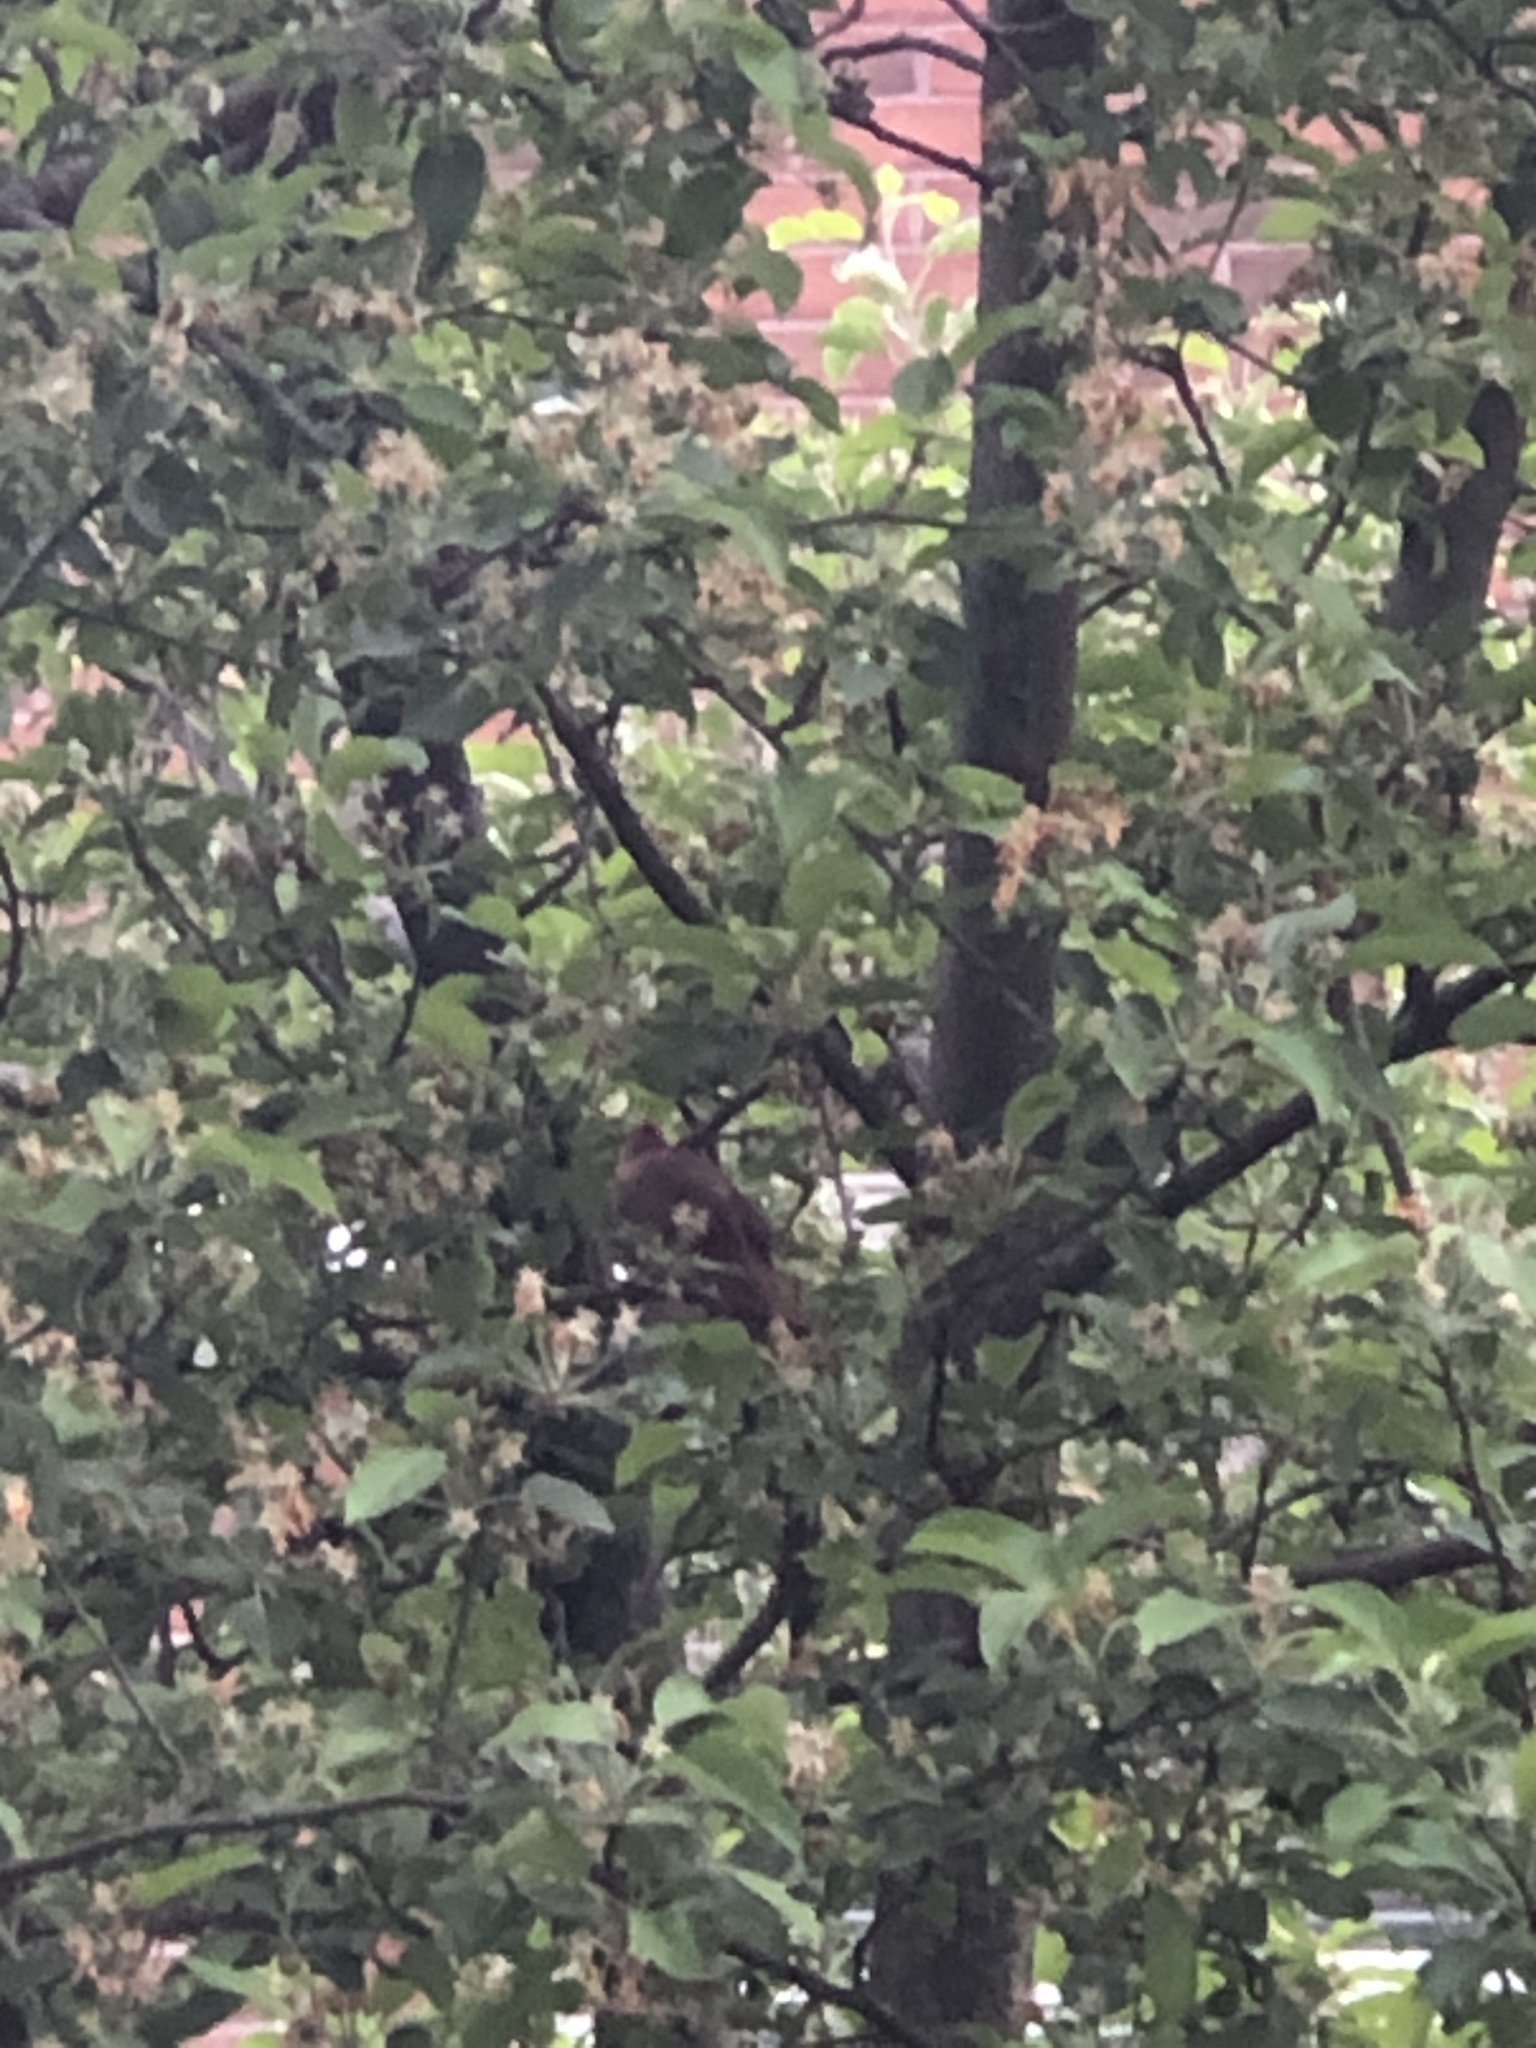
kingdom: Animalia
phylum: Chordata
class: Aves
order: Passeriformes
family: Cardinalidae
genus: Cardinalis
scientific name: Cardinalis cardinalis
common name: Northern cardinal
